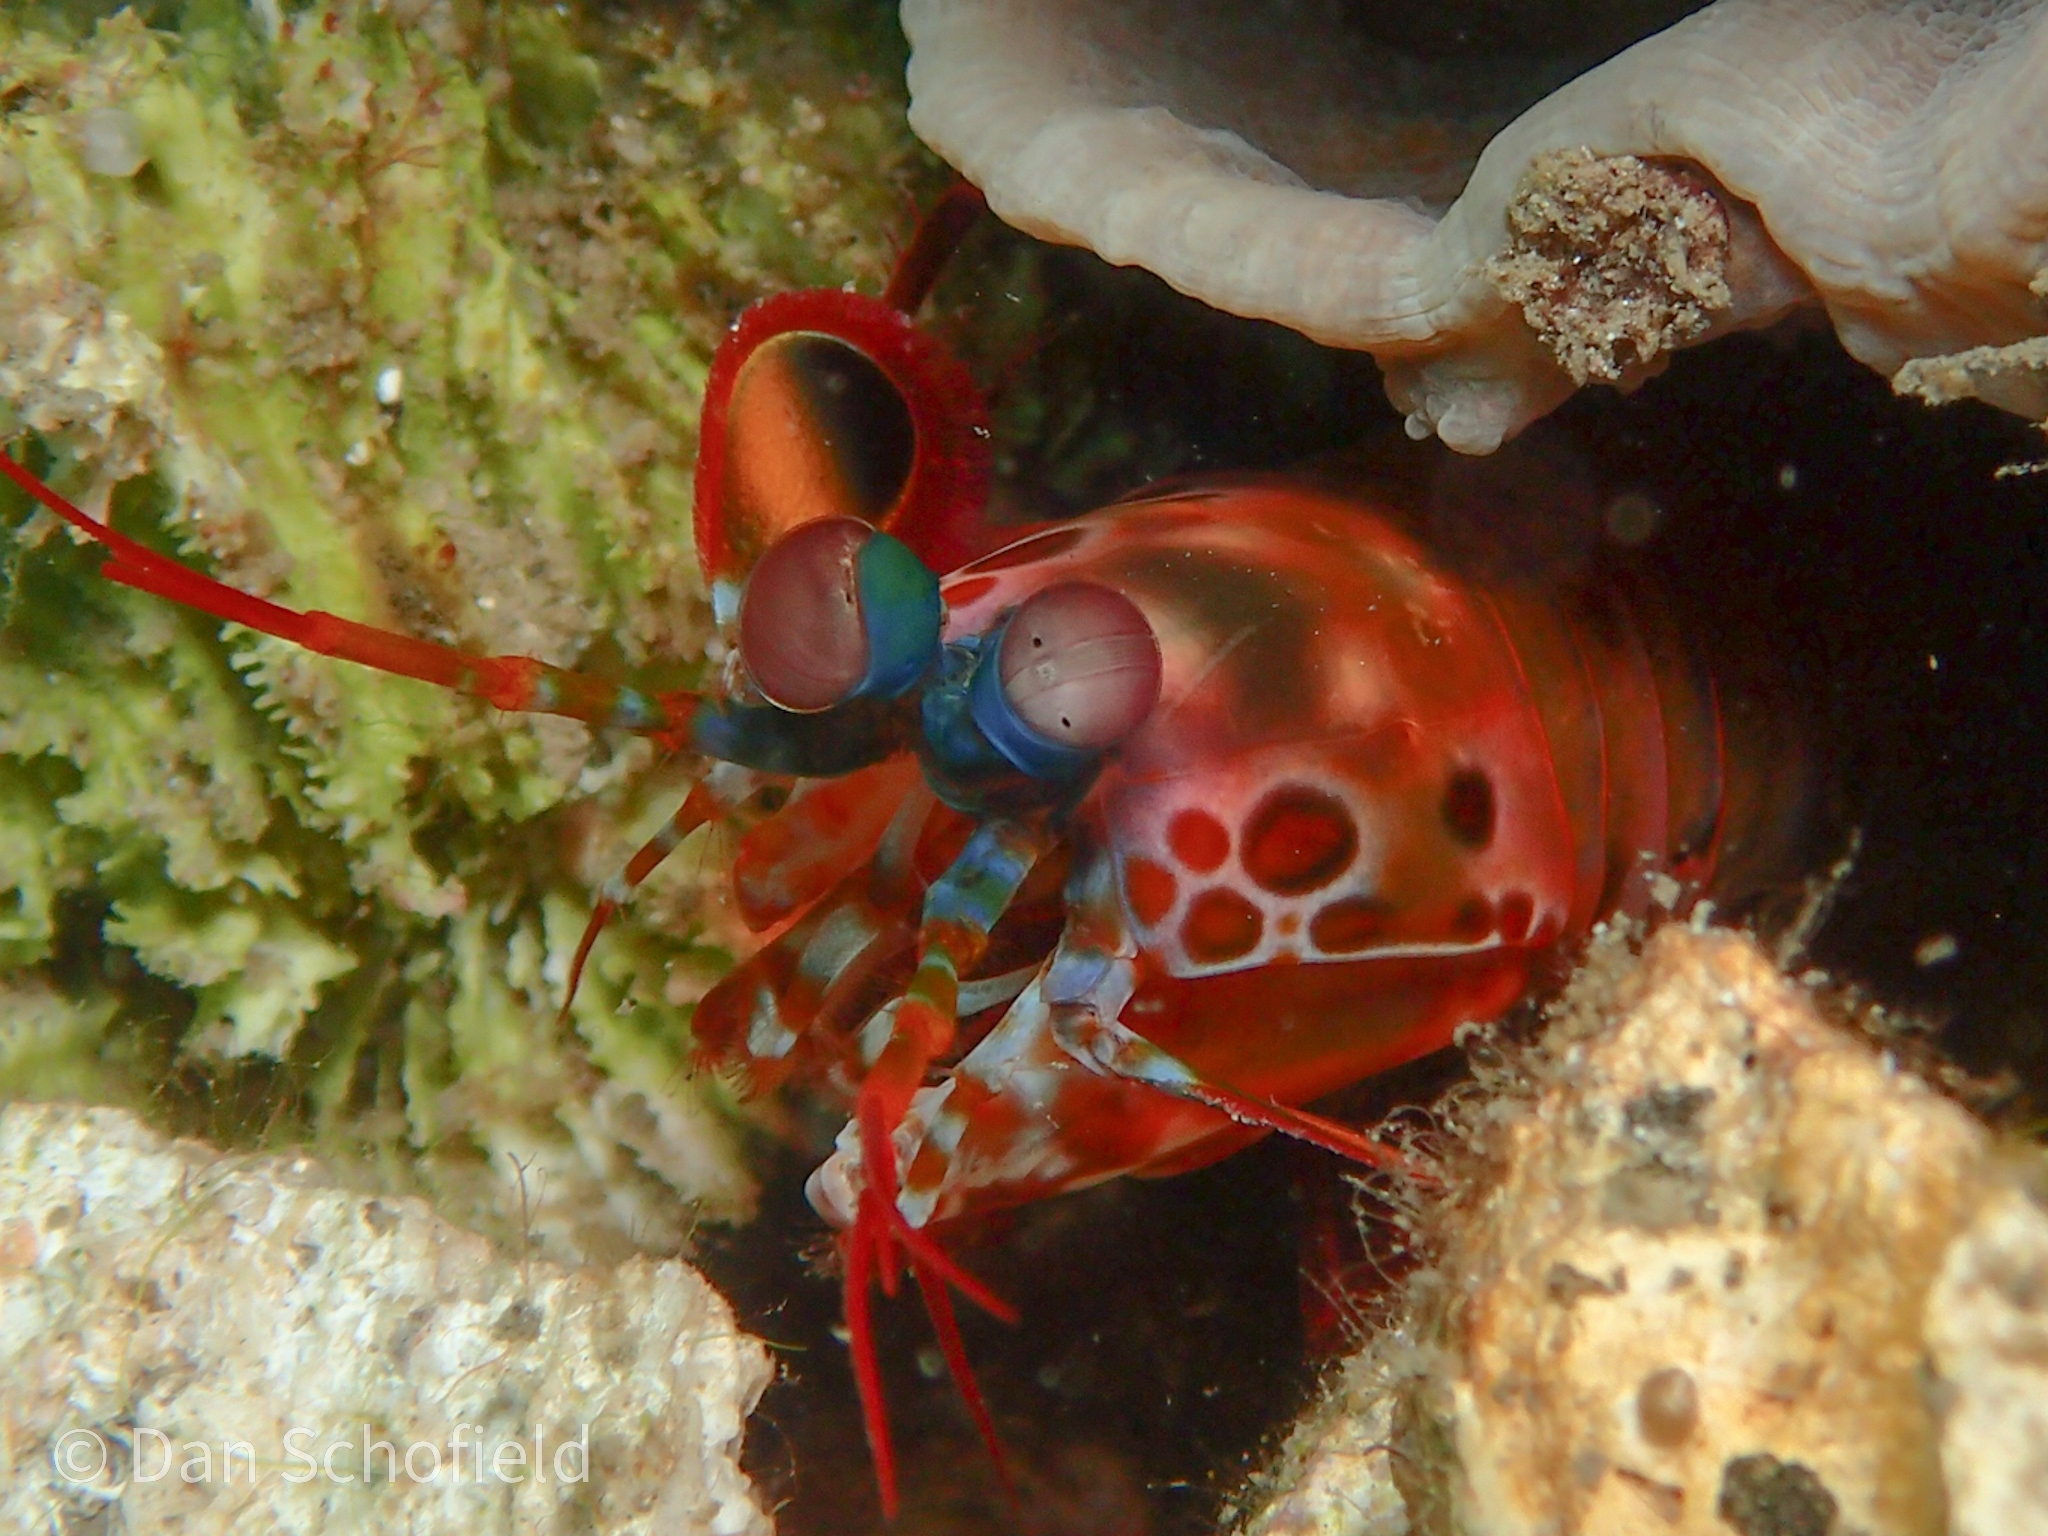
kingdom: Animalia
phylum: Arthropoda
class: Malacostraca
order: Stomatopoda
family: Odontodactylidae
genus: Odontodactylus
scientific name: Odontodactylus scyllarus
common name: Peacock mantis shrimp
